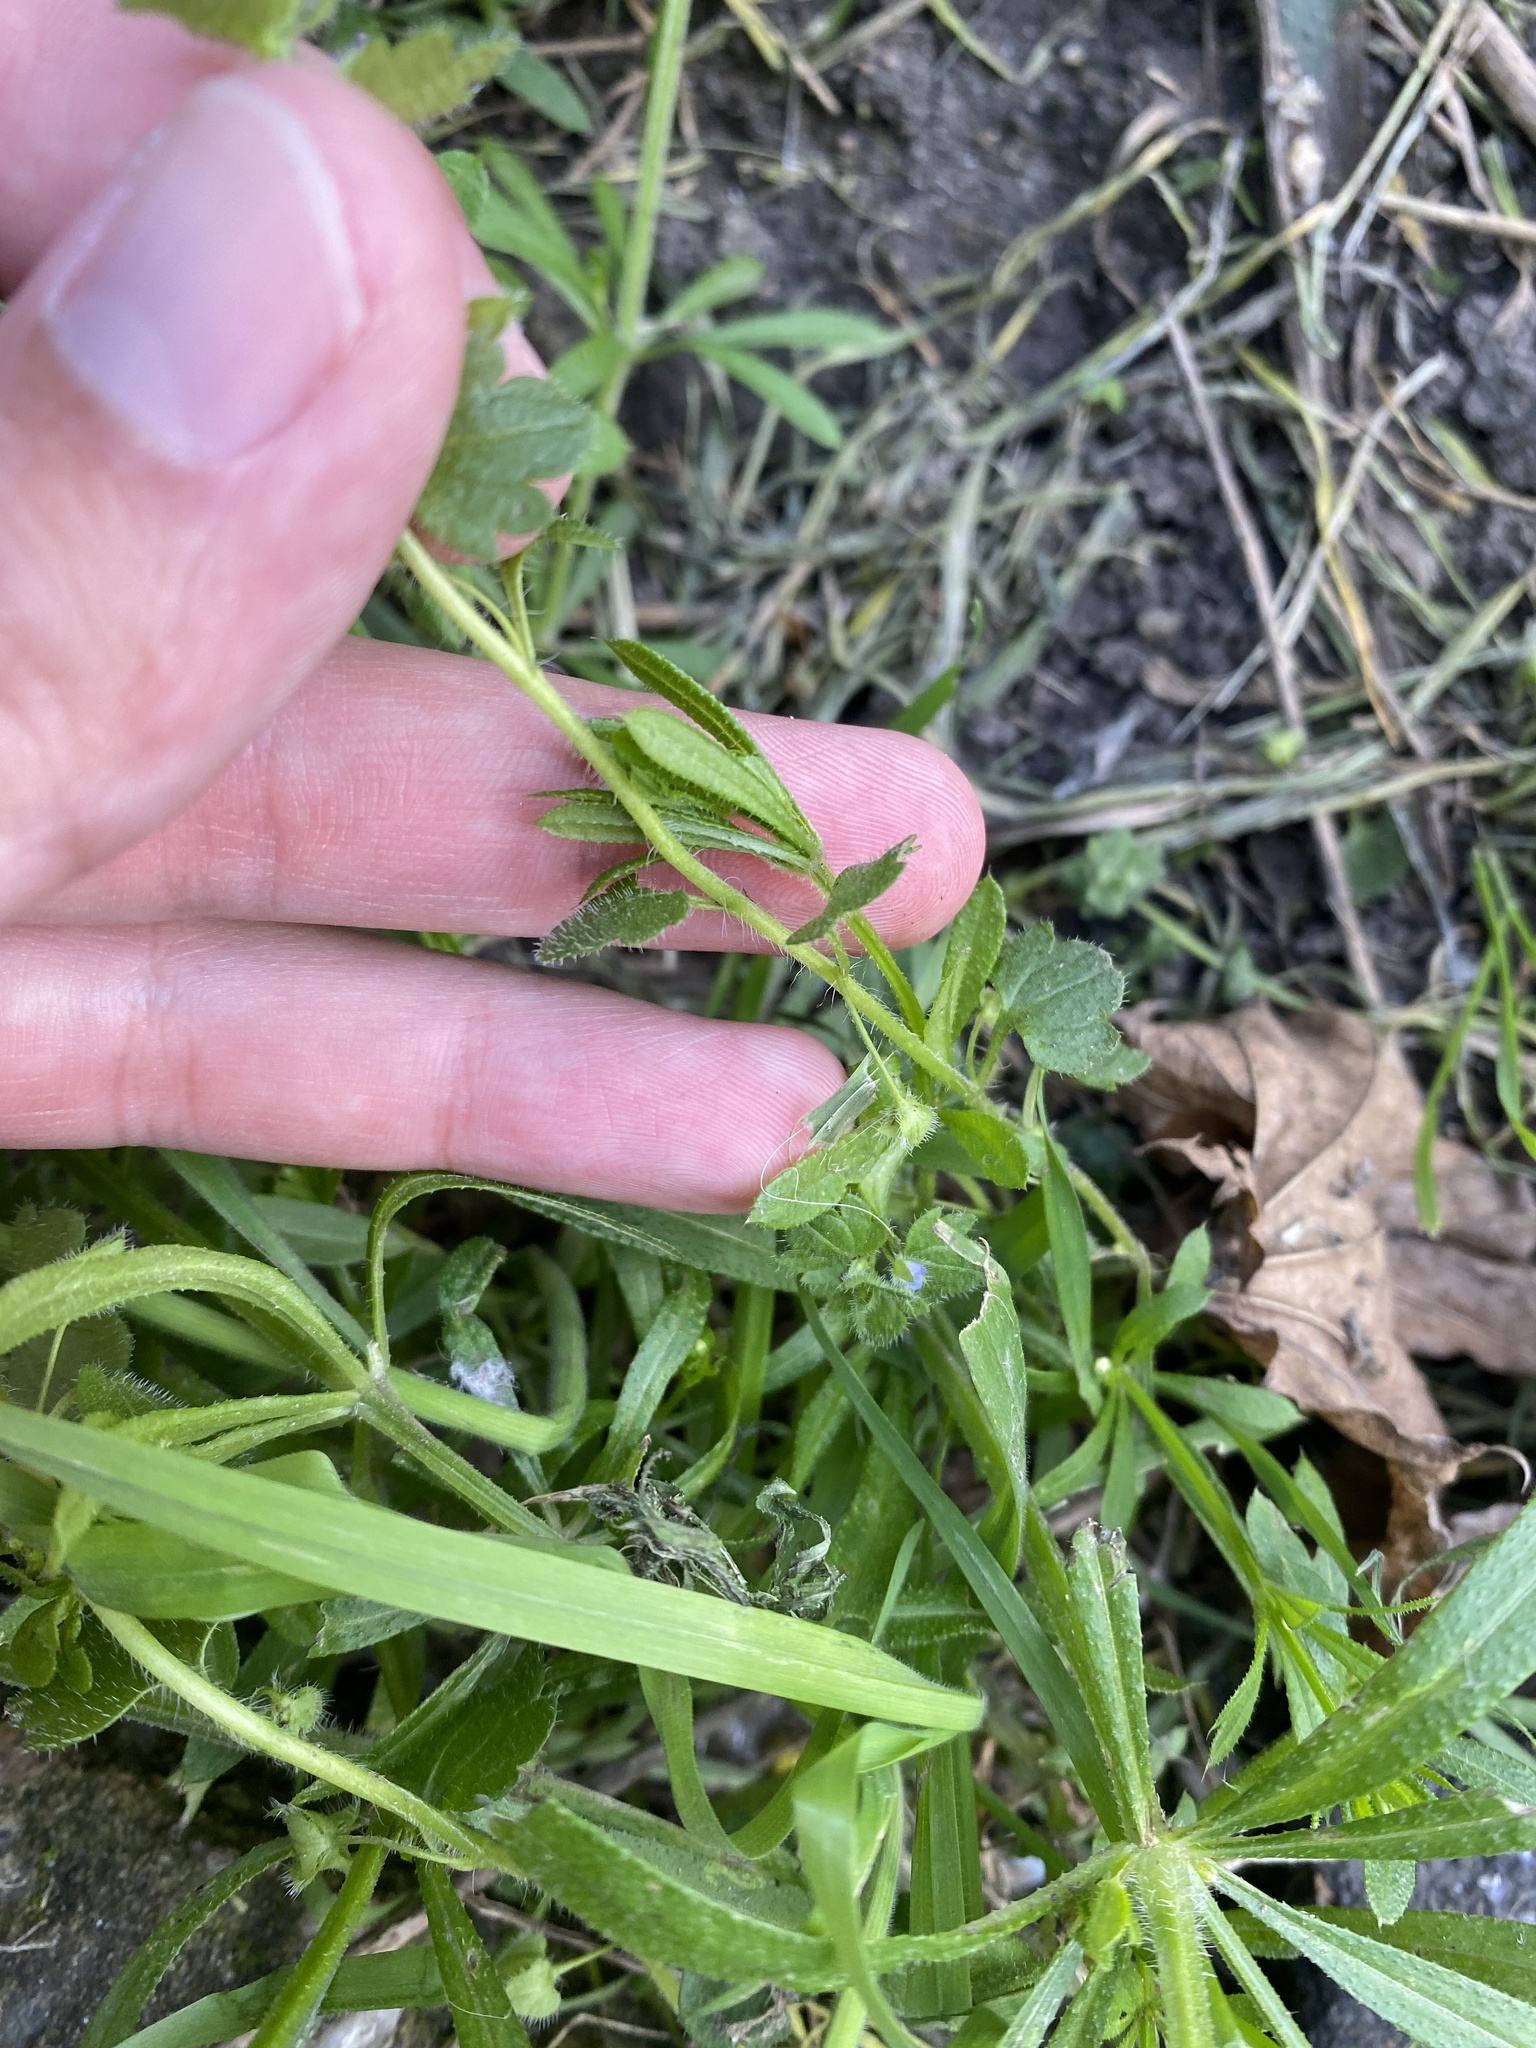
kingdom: Plantae
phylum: Tracheophyta
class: Magnoliopsida
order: Lamiales
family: Plantaginaceae
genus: Veronica
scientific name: Veronica hederifolia
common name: Ivy-leaved speedwell
